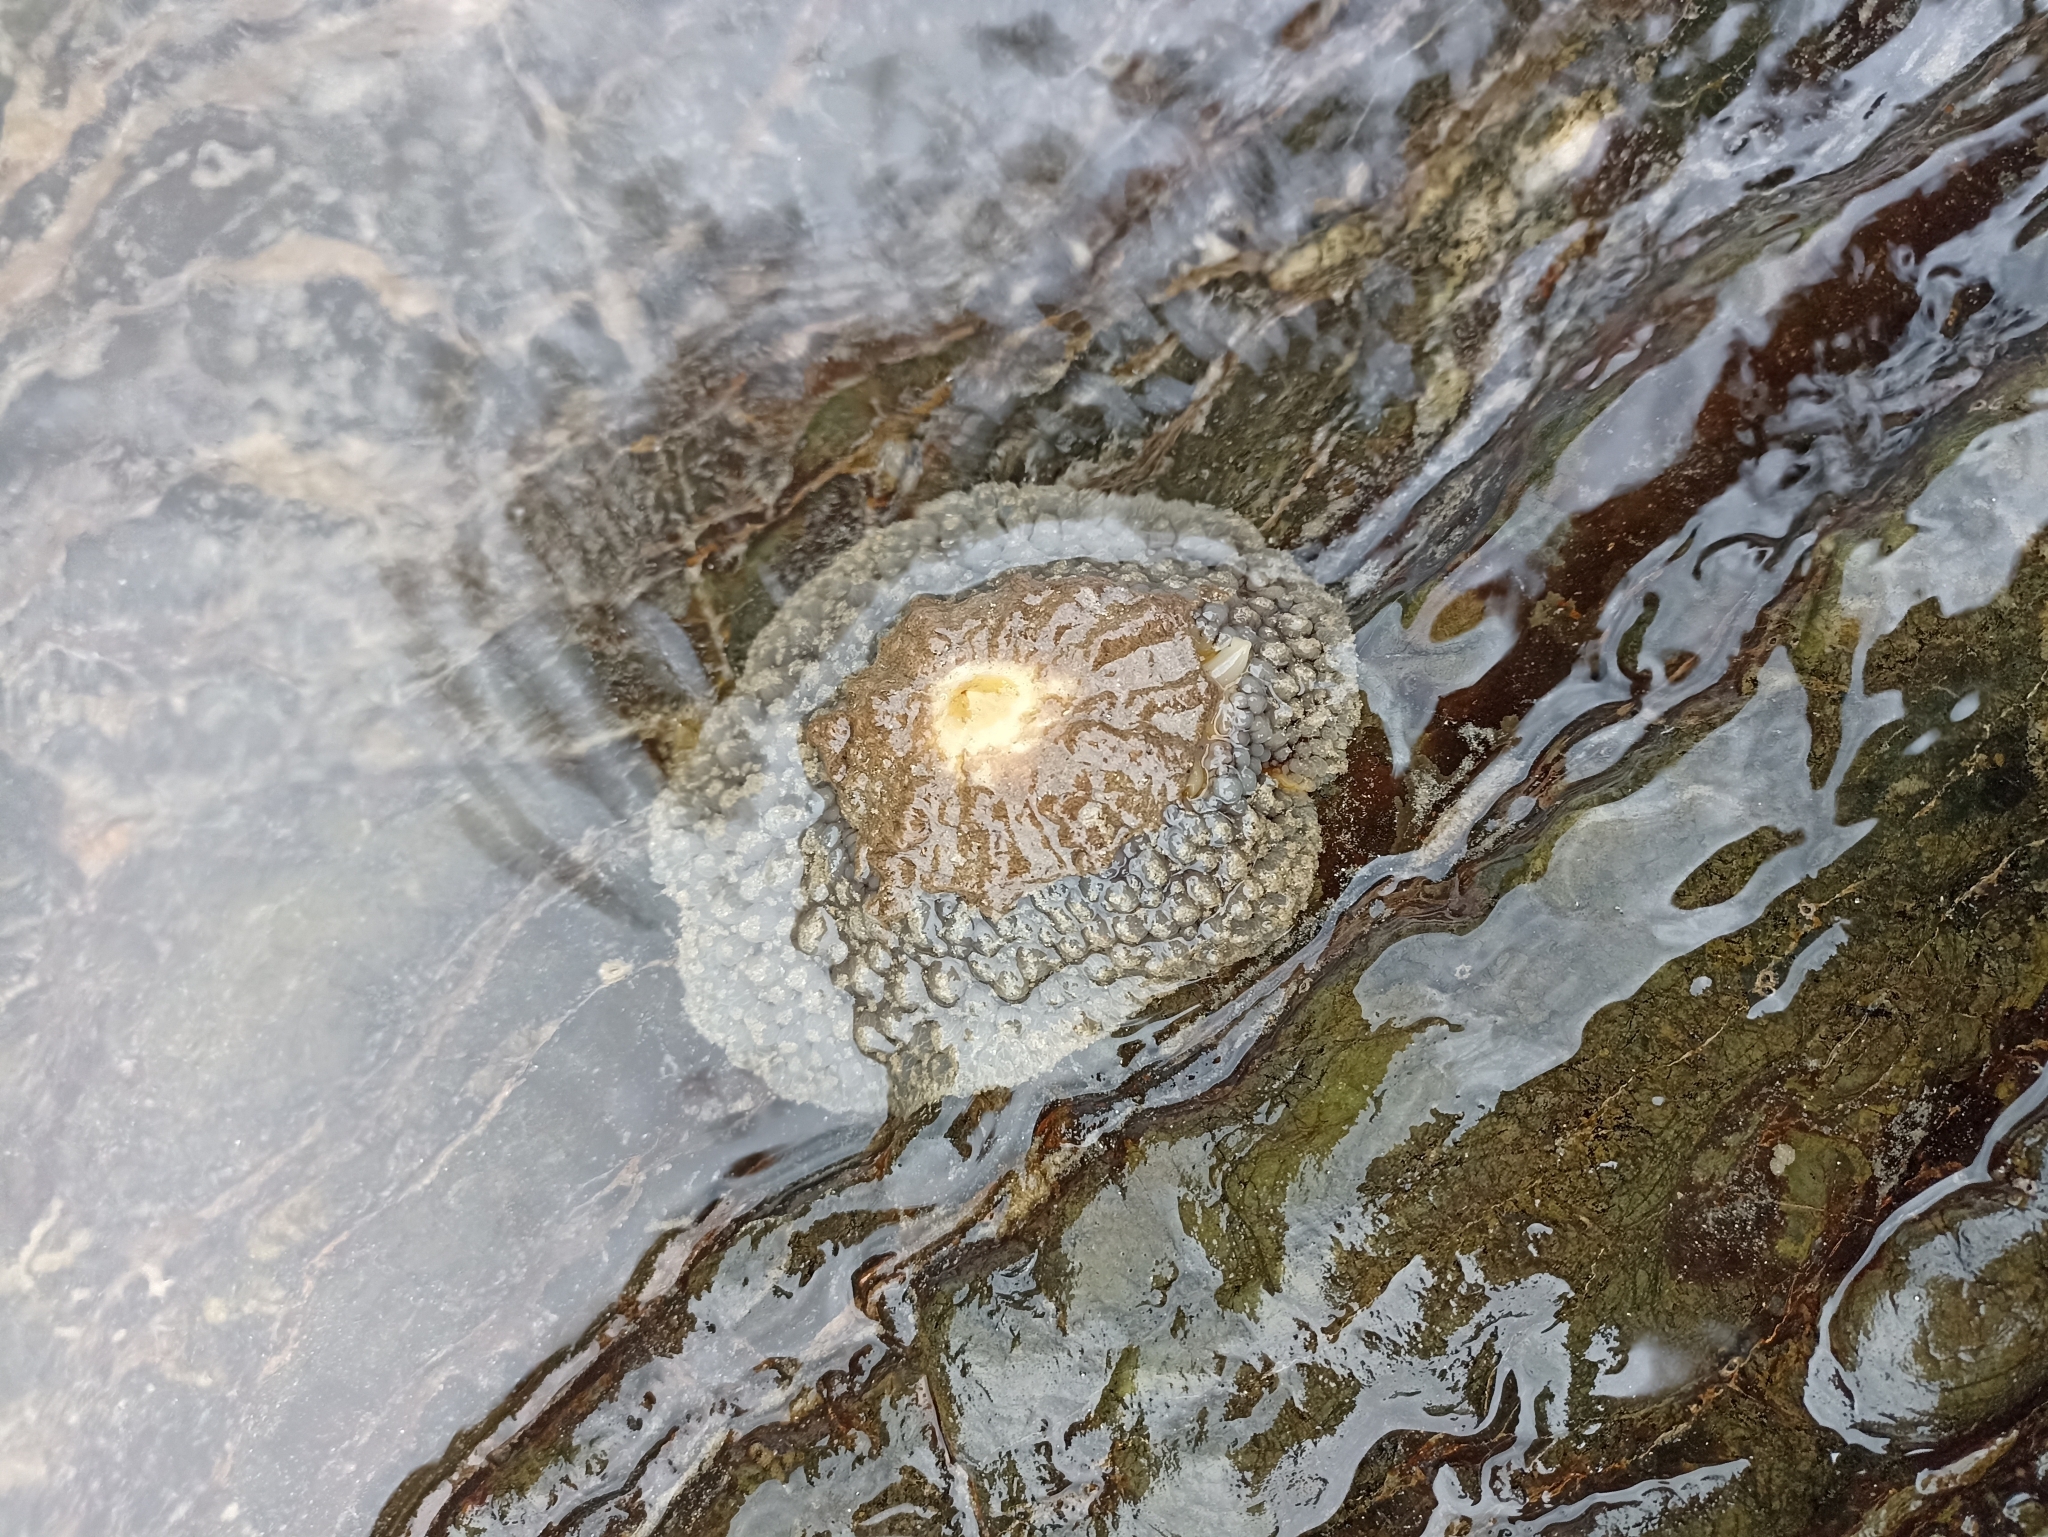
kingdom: Animalia
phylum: Mollusca
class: Gastropoda
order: Umbraculida
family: Umbraculidae
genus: Umbraculum
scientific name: Umbraculum umbraculum
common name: Atlantic umbrella slug
